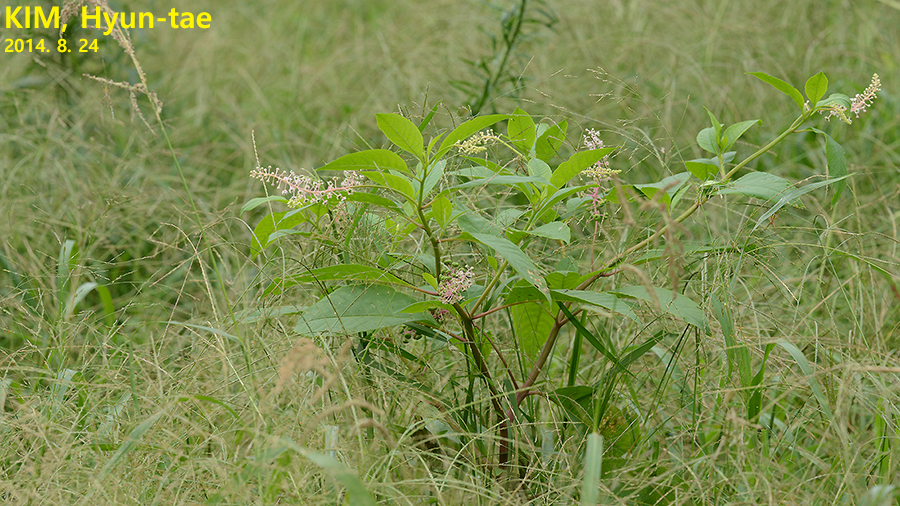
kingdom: Plantae
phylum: Tracheophyta
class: Magnoliopsida
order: Caryophyllales
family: Phytolaccaceae
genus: Phytolacca
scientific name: Phytolacca americana
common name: American pokeweed
